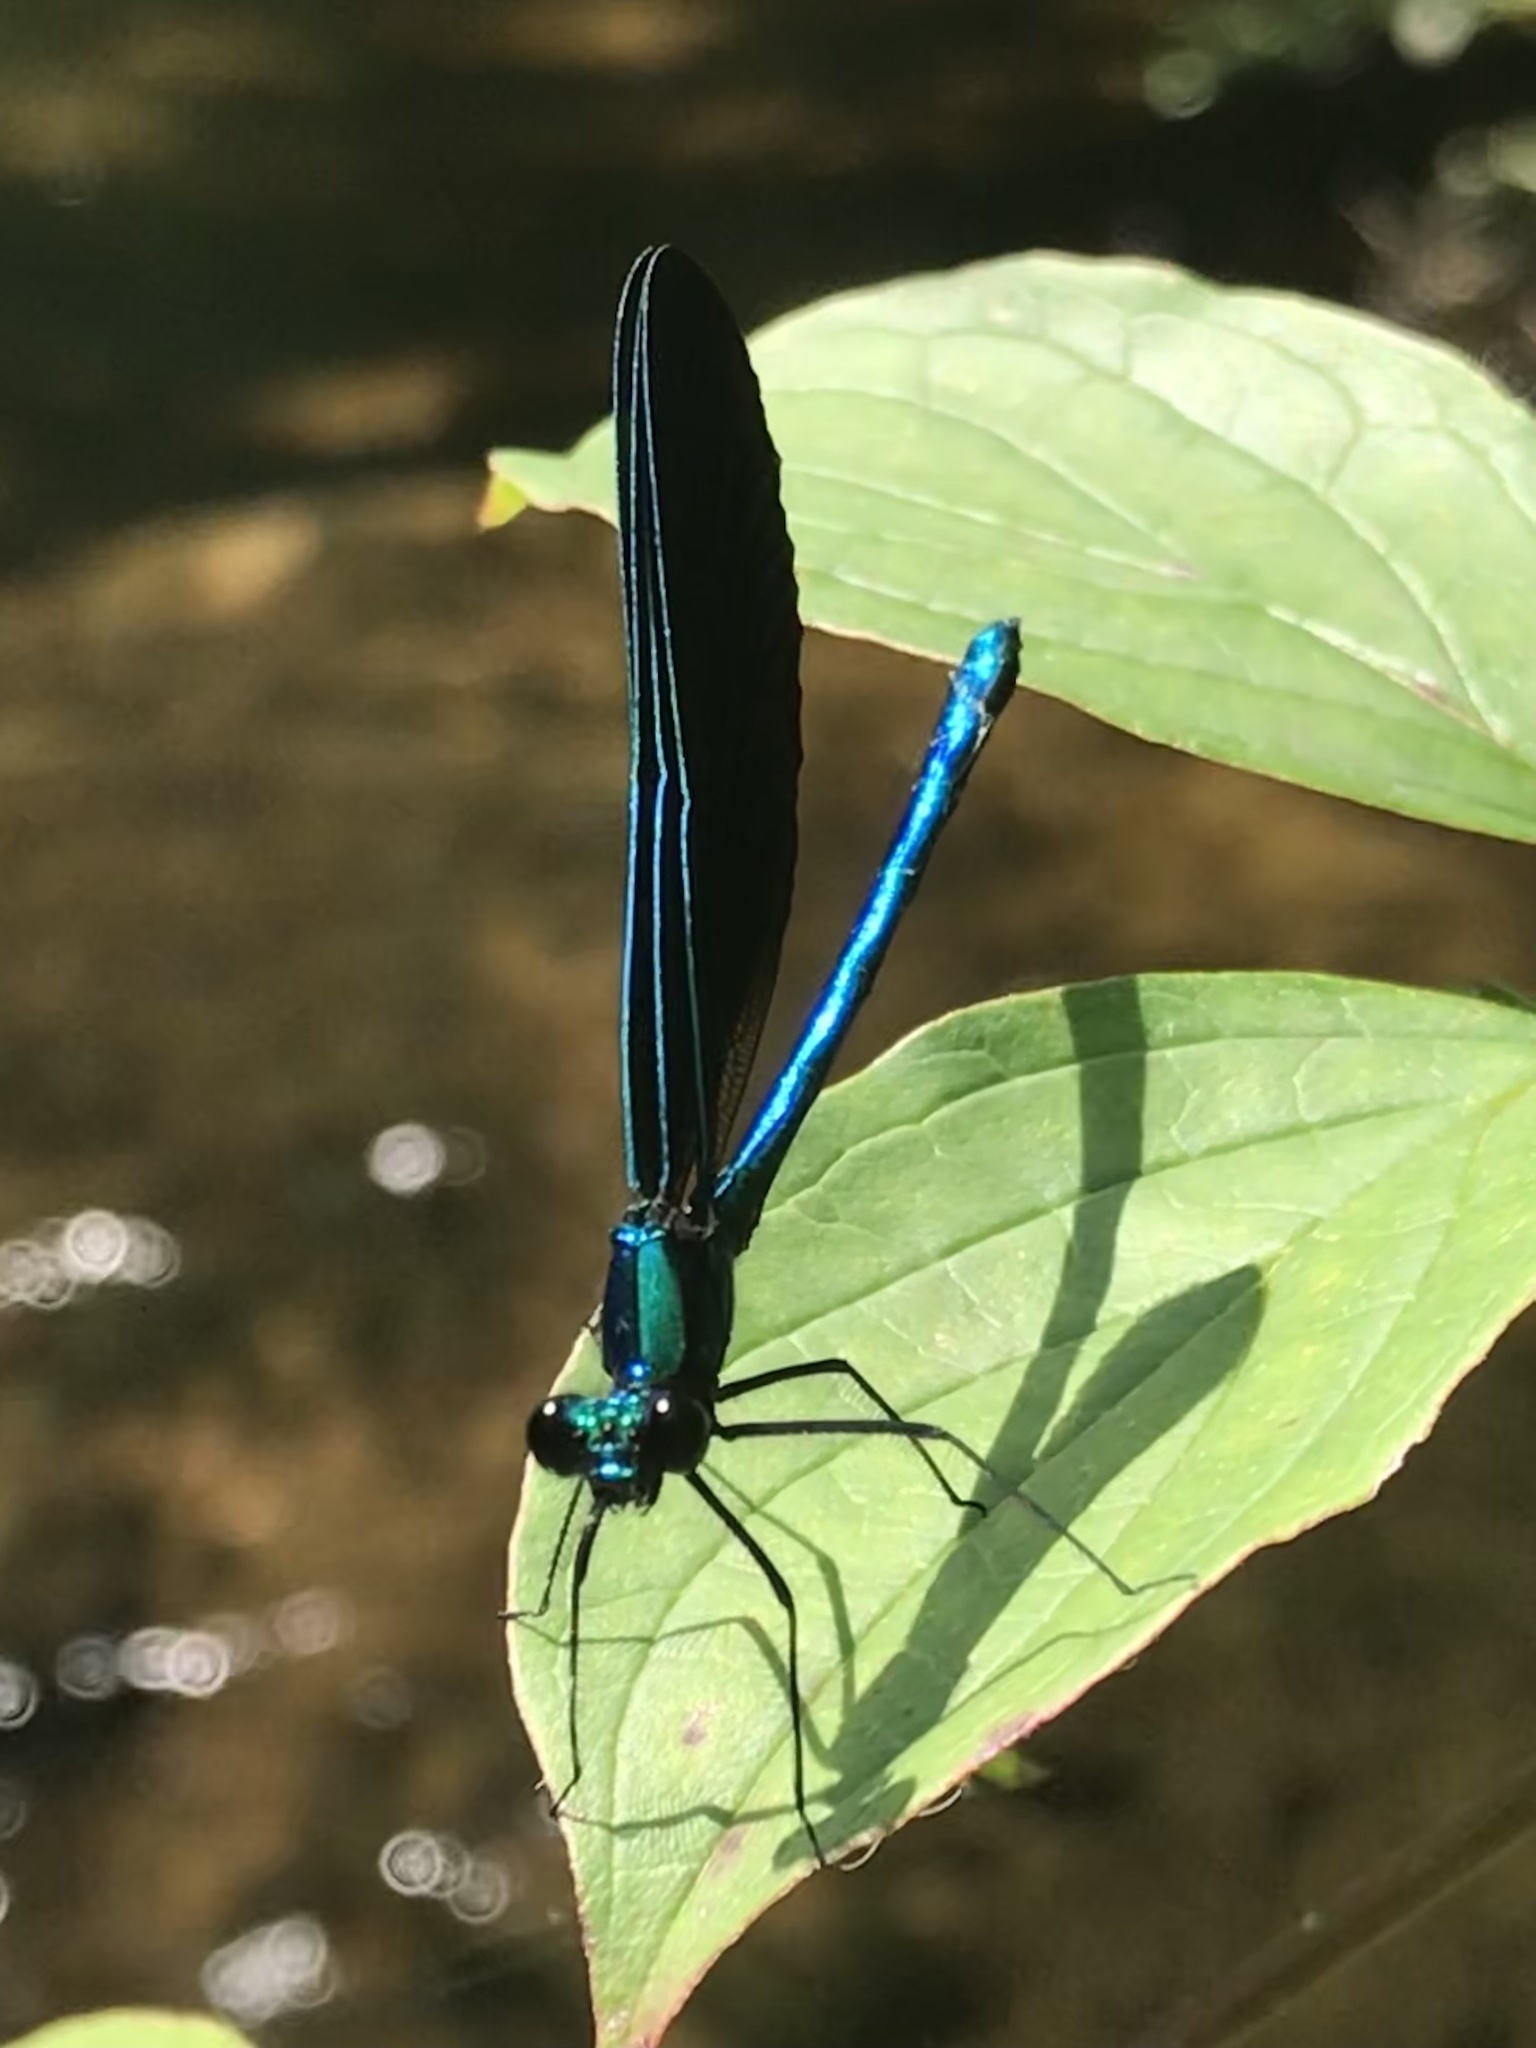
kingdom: Animalia
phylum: Arthropoda
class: Insecta
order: Odonata
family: Calopterygidae
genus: Calopteryx
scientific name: Calopteryx maculata
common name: Ebony jewelwing
